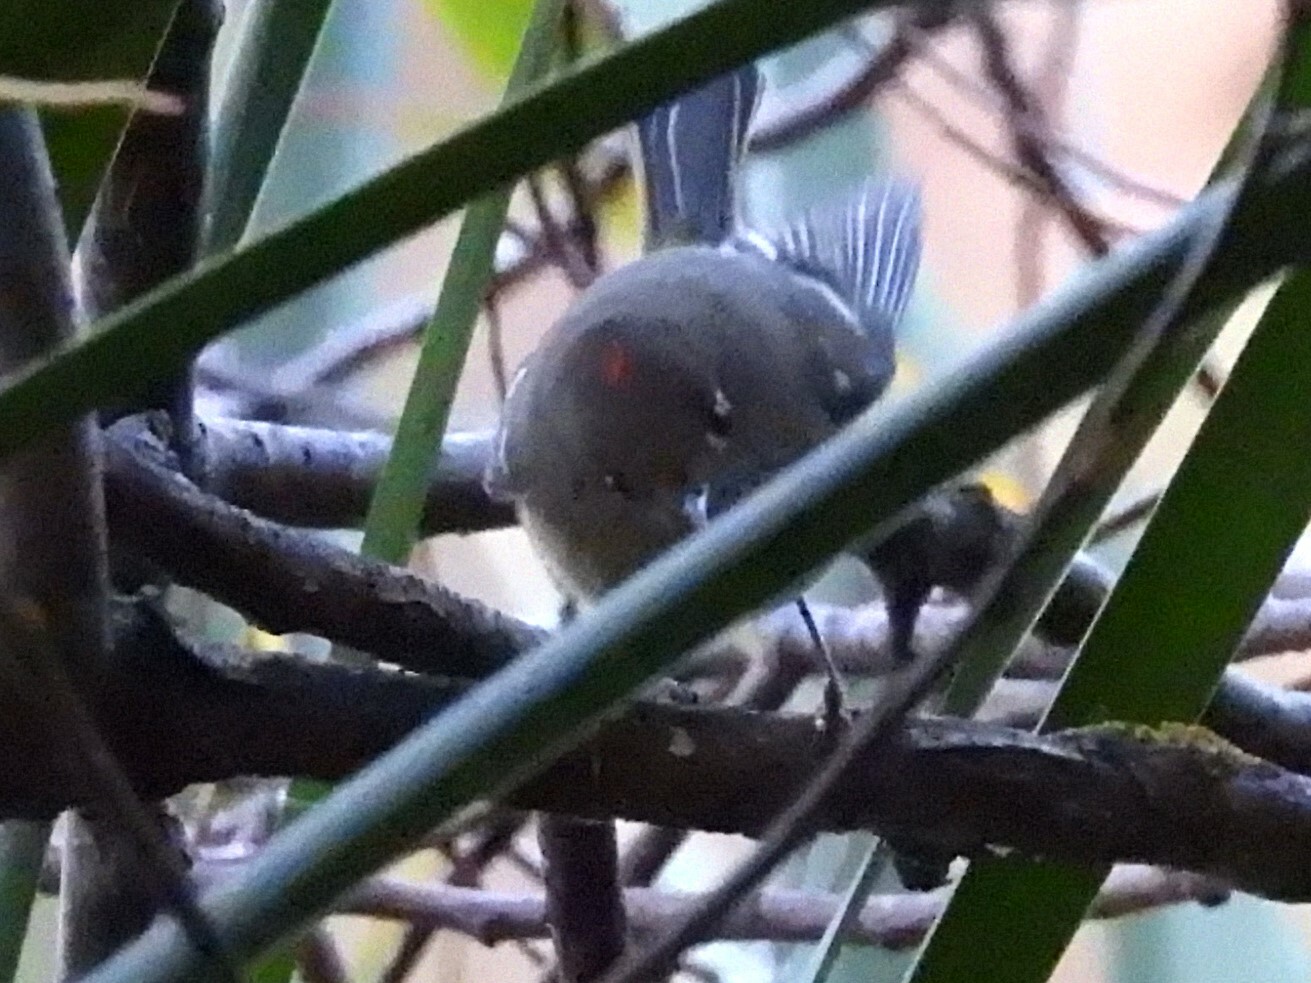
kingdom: Animalia
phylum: Chordata
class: Aves
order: Passeriformes
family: Regulidae
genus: Regulus
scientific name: Regulus calendula
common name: Ruby-crowned kinglet
